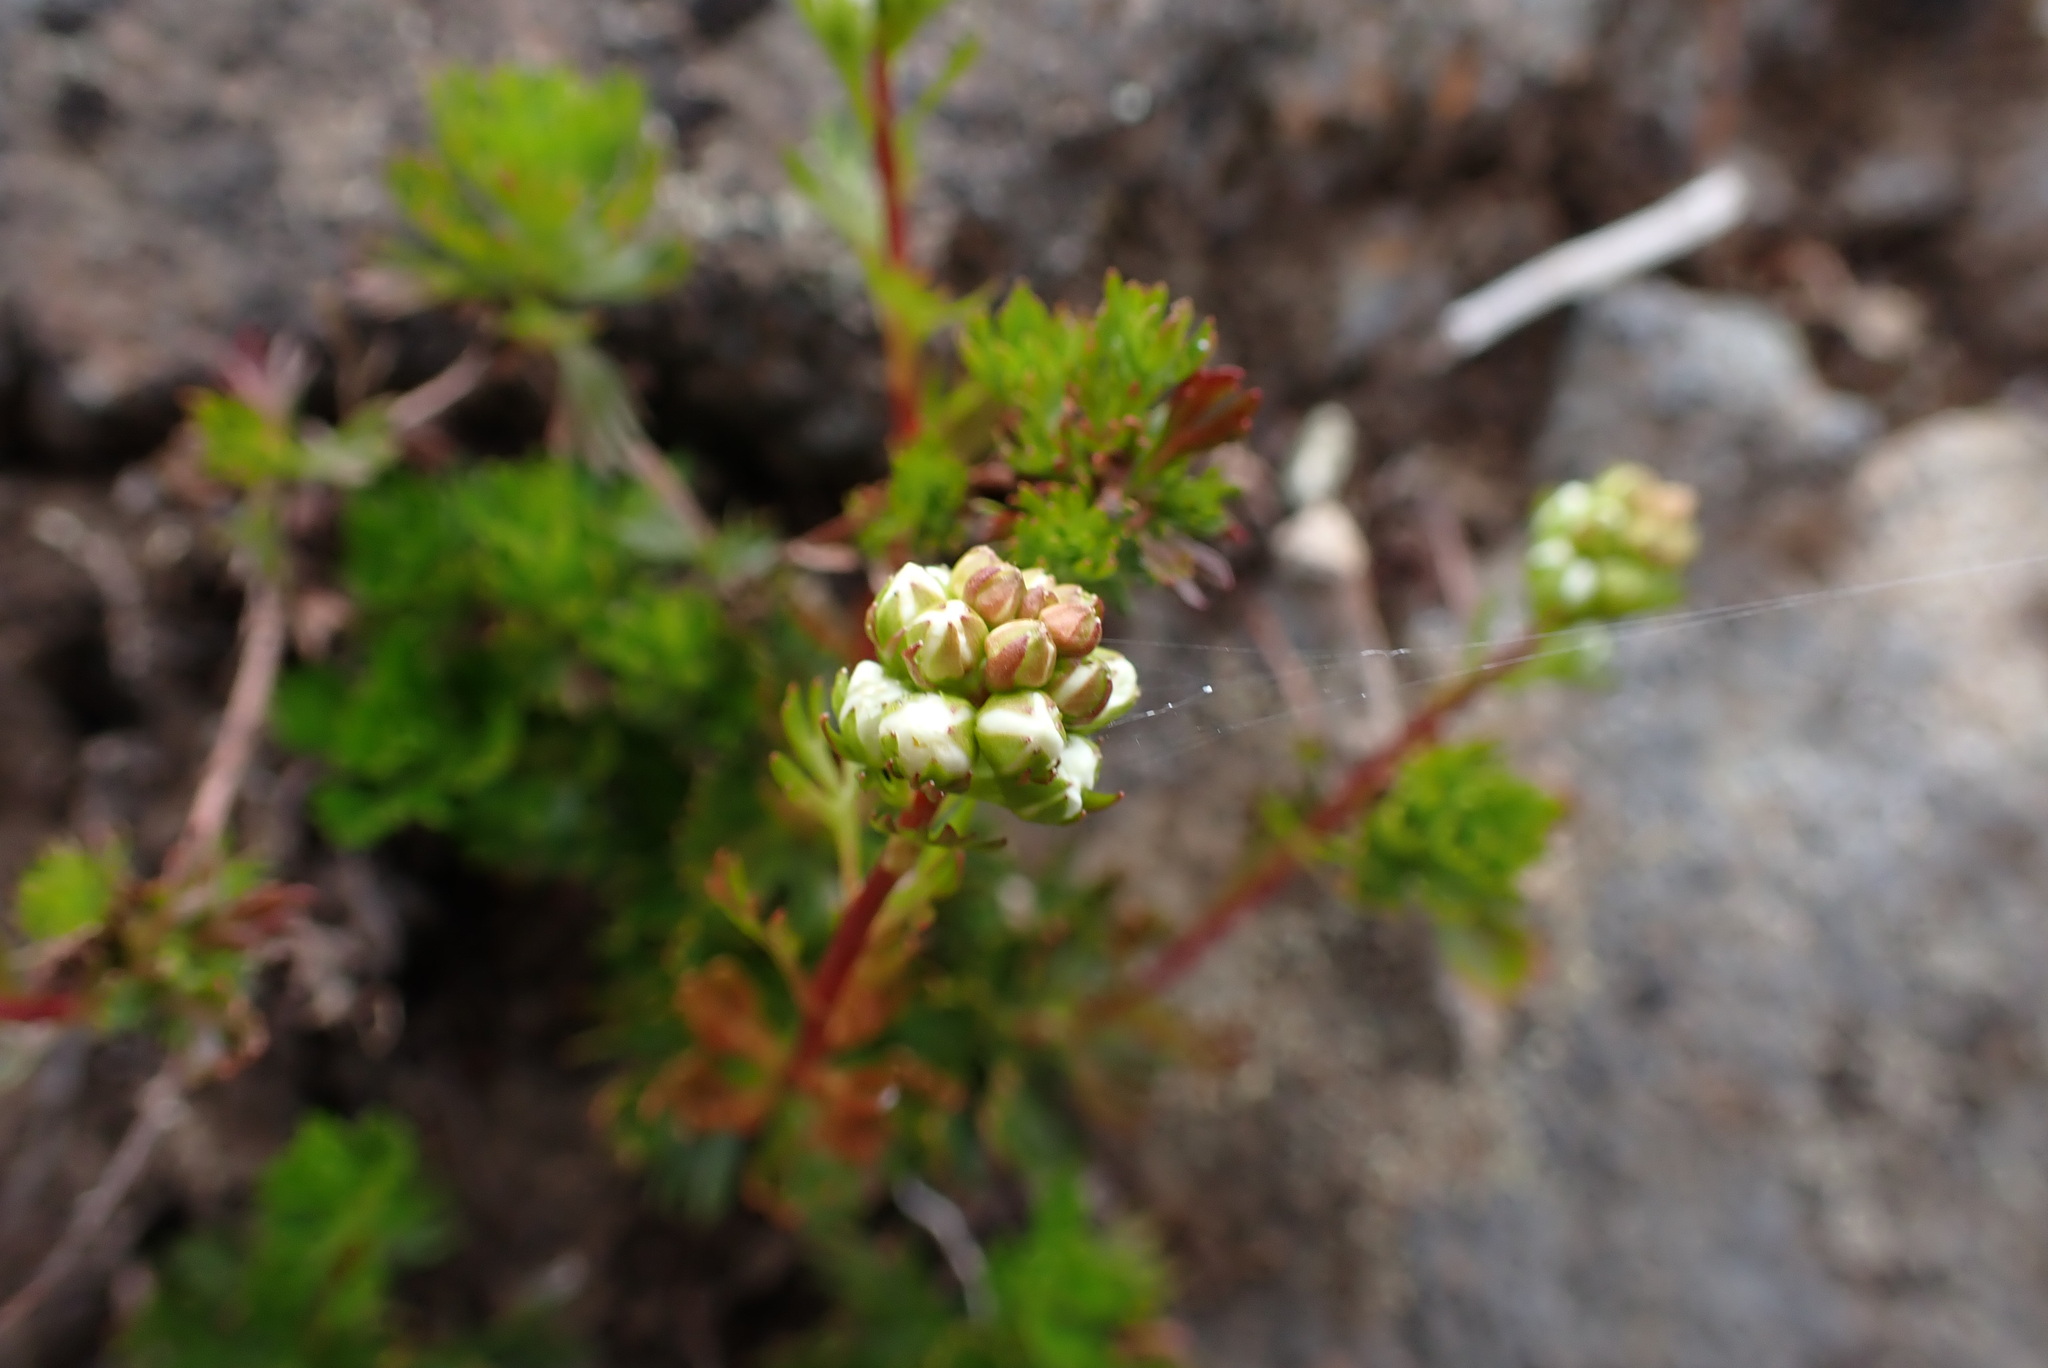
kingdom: Plantae
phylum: Tracheophyta
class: Magnoliopsida
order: Rosales
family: Rosaceae
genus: Luetkea
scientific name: Luetkea pectinata
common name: Partridgefoot
